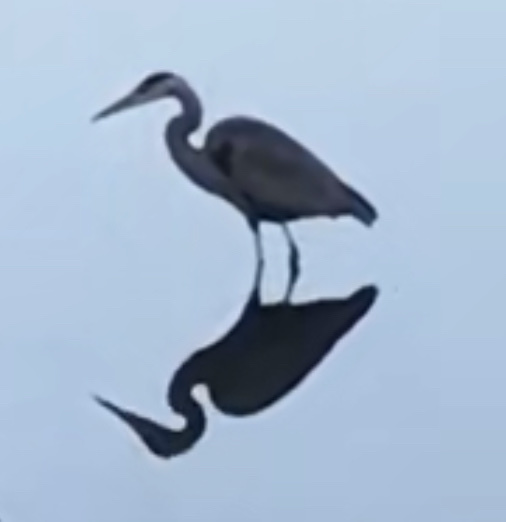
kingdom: Animalia
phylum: Chordata
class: Aves
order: Pelecaniformes
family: Ardeidae
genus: Ardea
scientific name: Ardea herodias
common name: Great blue heron
